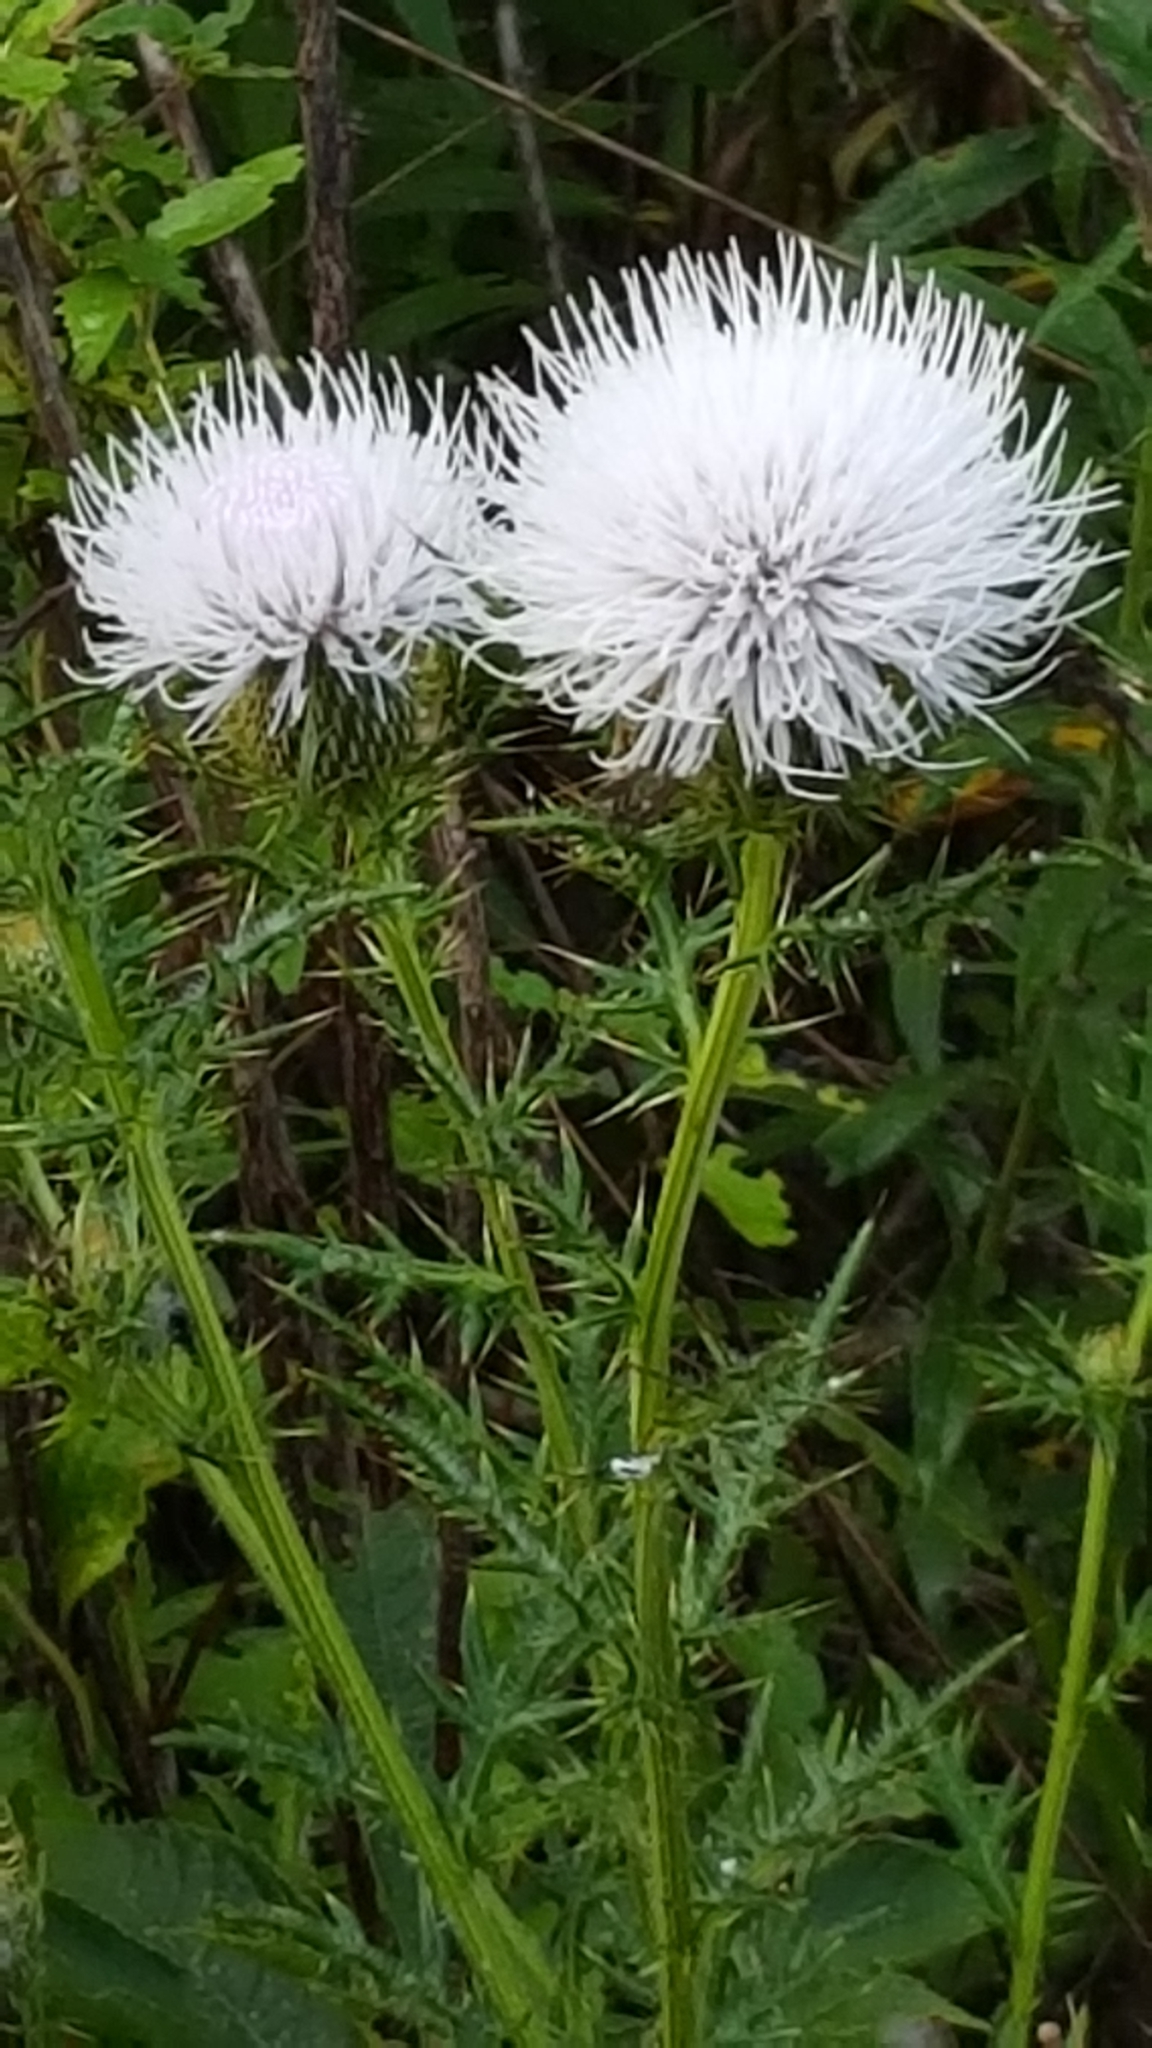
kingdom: Plantae
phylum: Tracheophyta
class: Magnoliopsida
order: Asterales
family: Asteraceae
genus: Cirsium
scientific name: Cirsium discolor
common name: Field thistle
